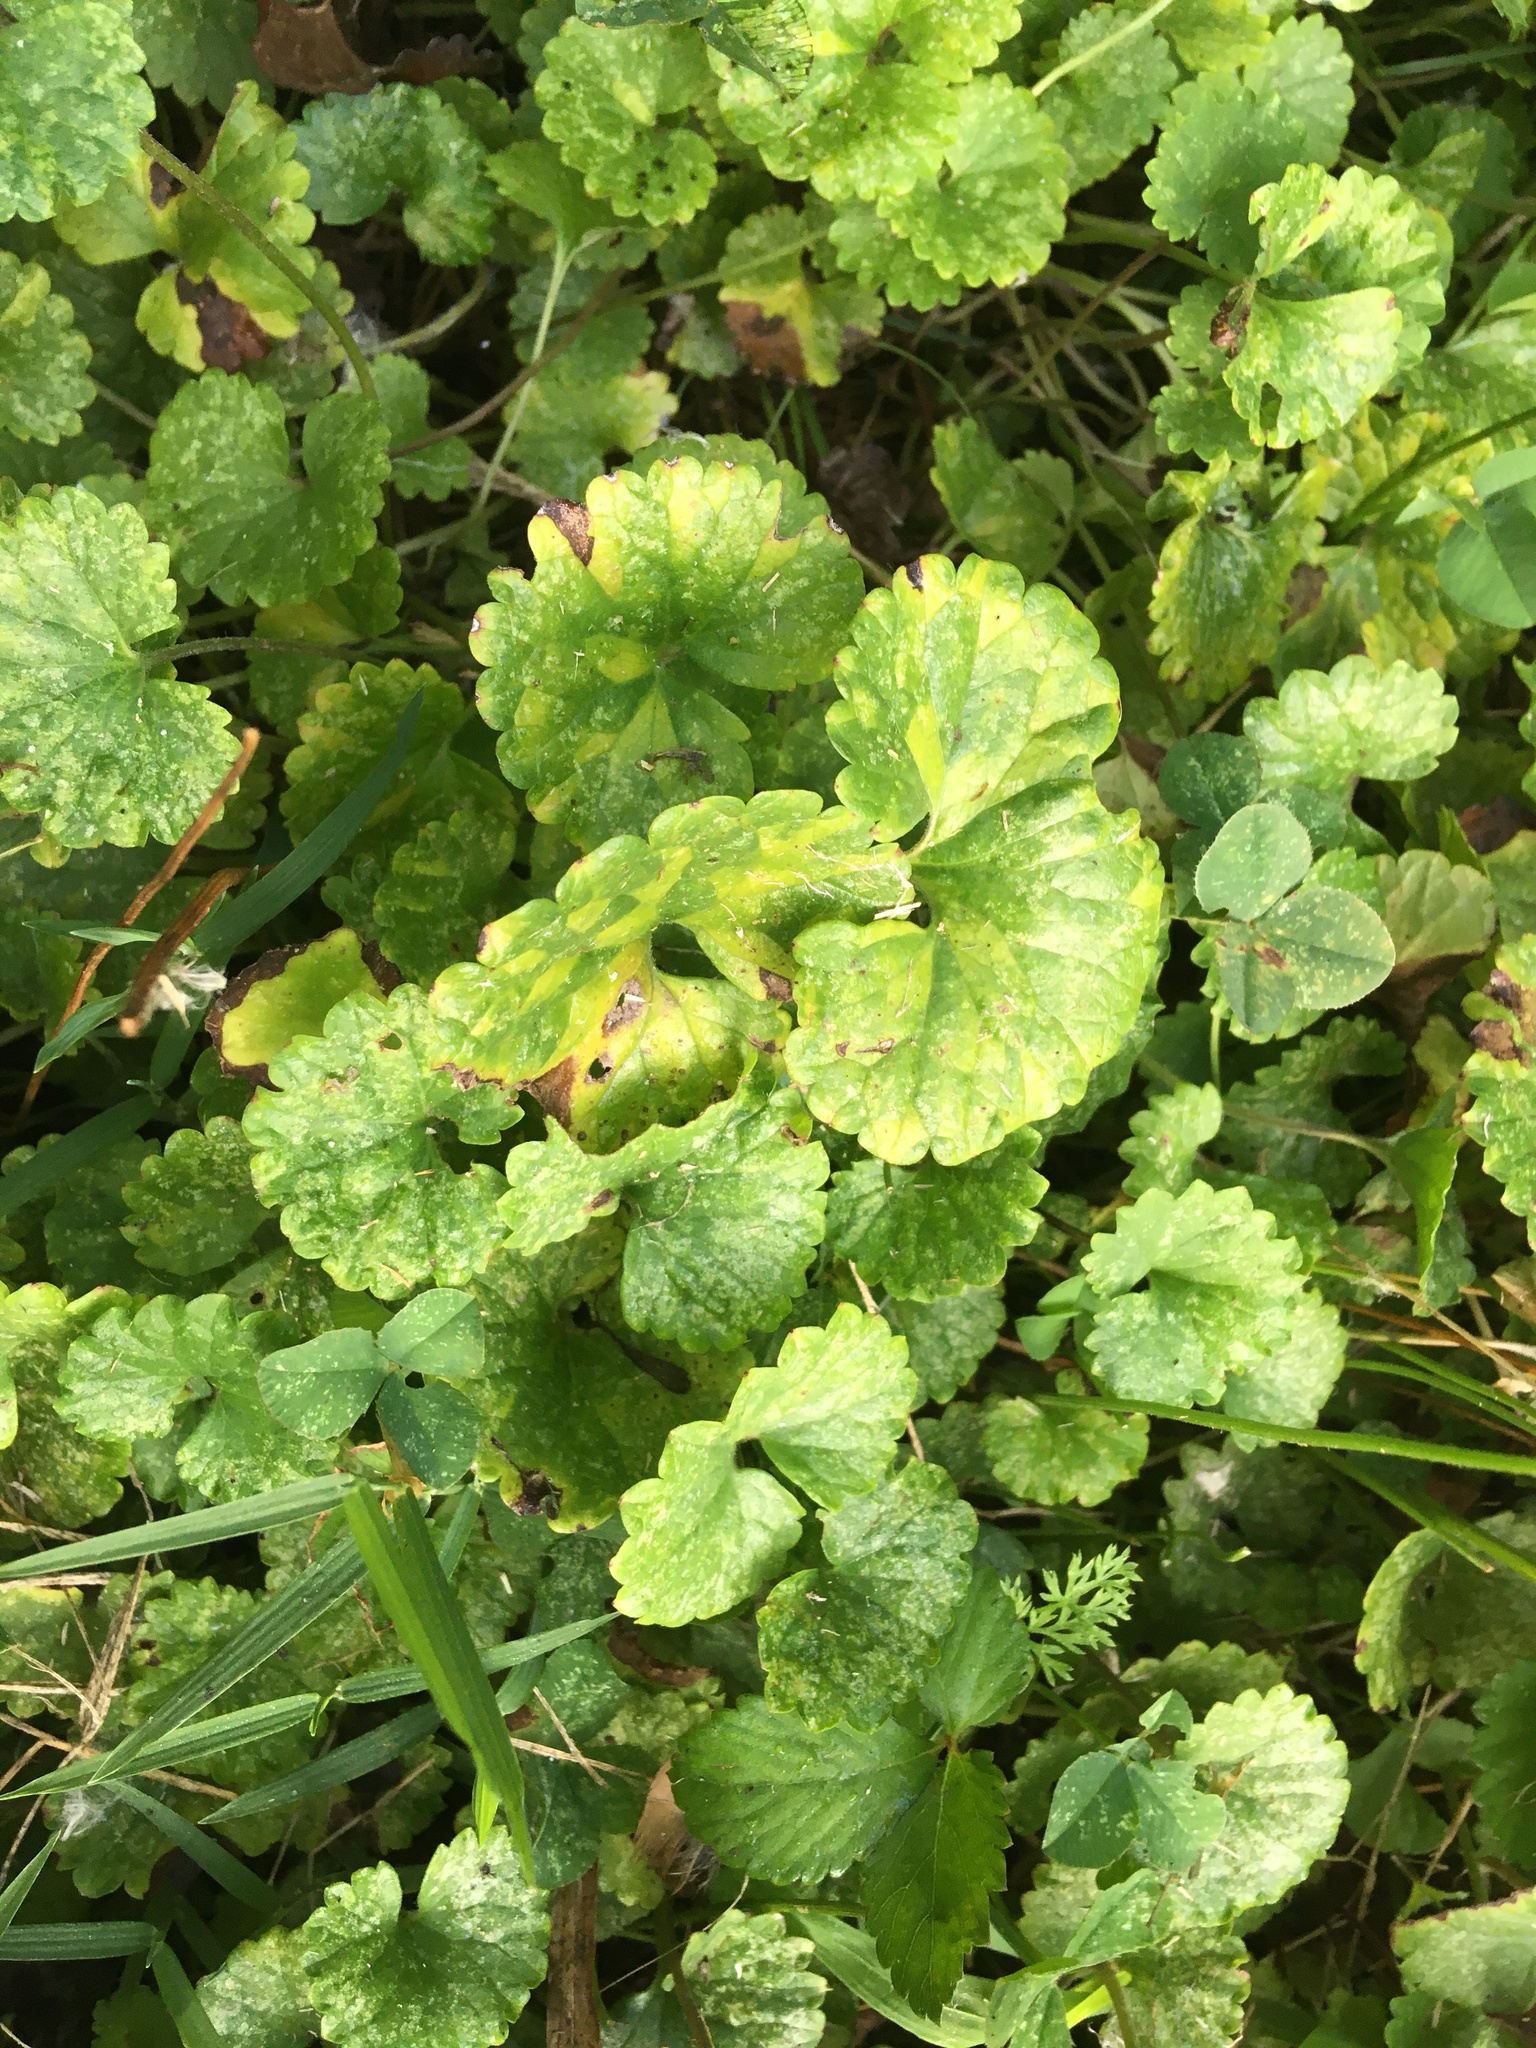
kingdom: Plantae
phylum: Tracheophyta
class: Magnoliopsida
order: Lamiales
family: Lamiaceae
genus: Glechoma
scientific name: Glechoma hederacea
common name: Ground ivy
